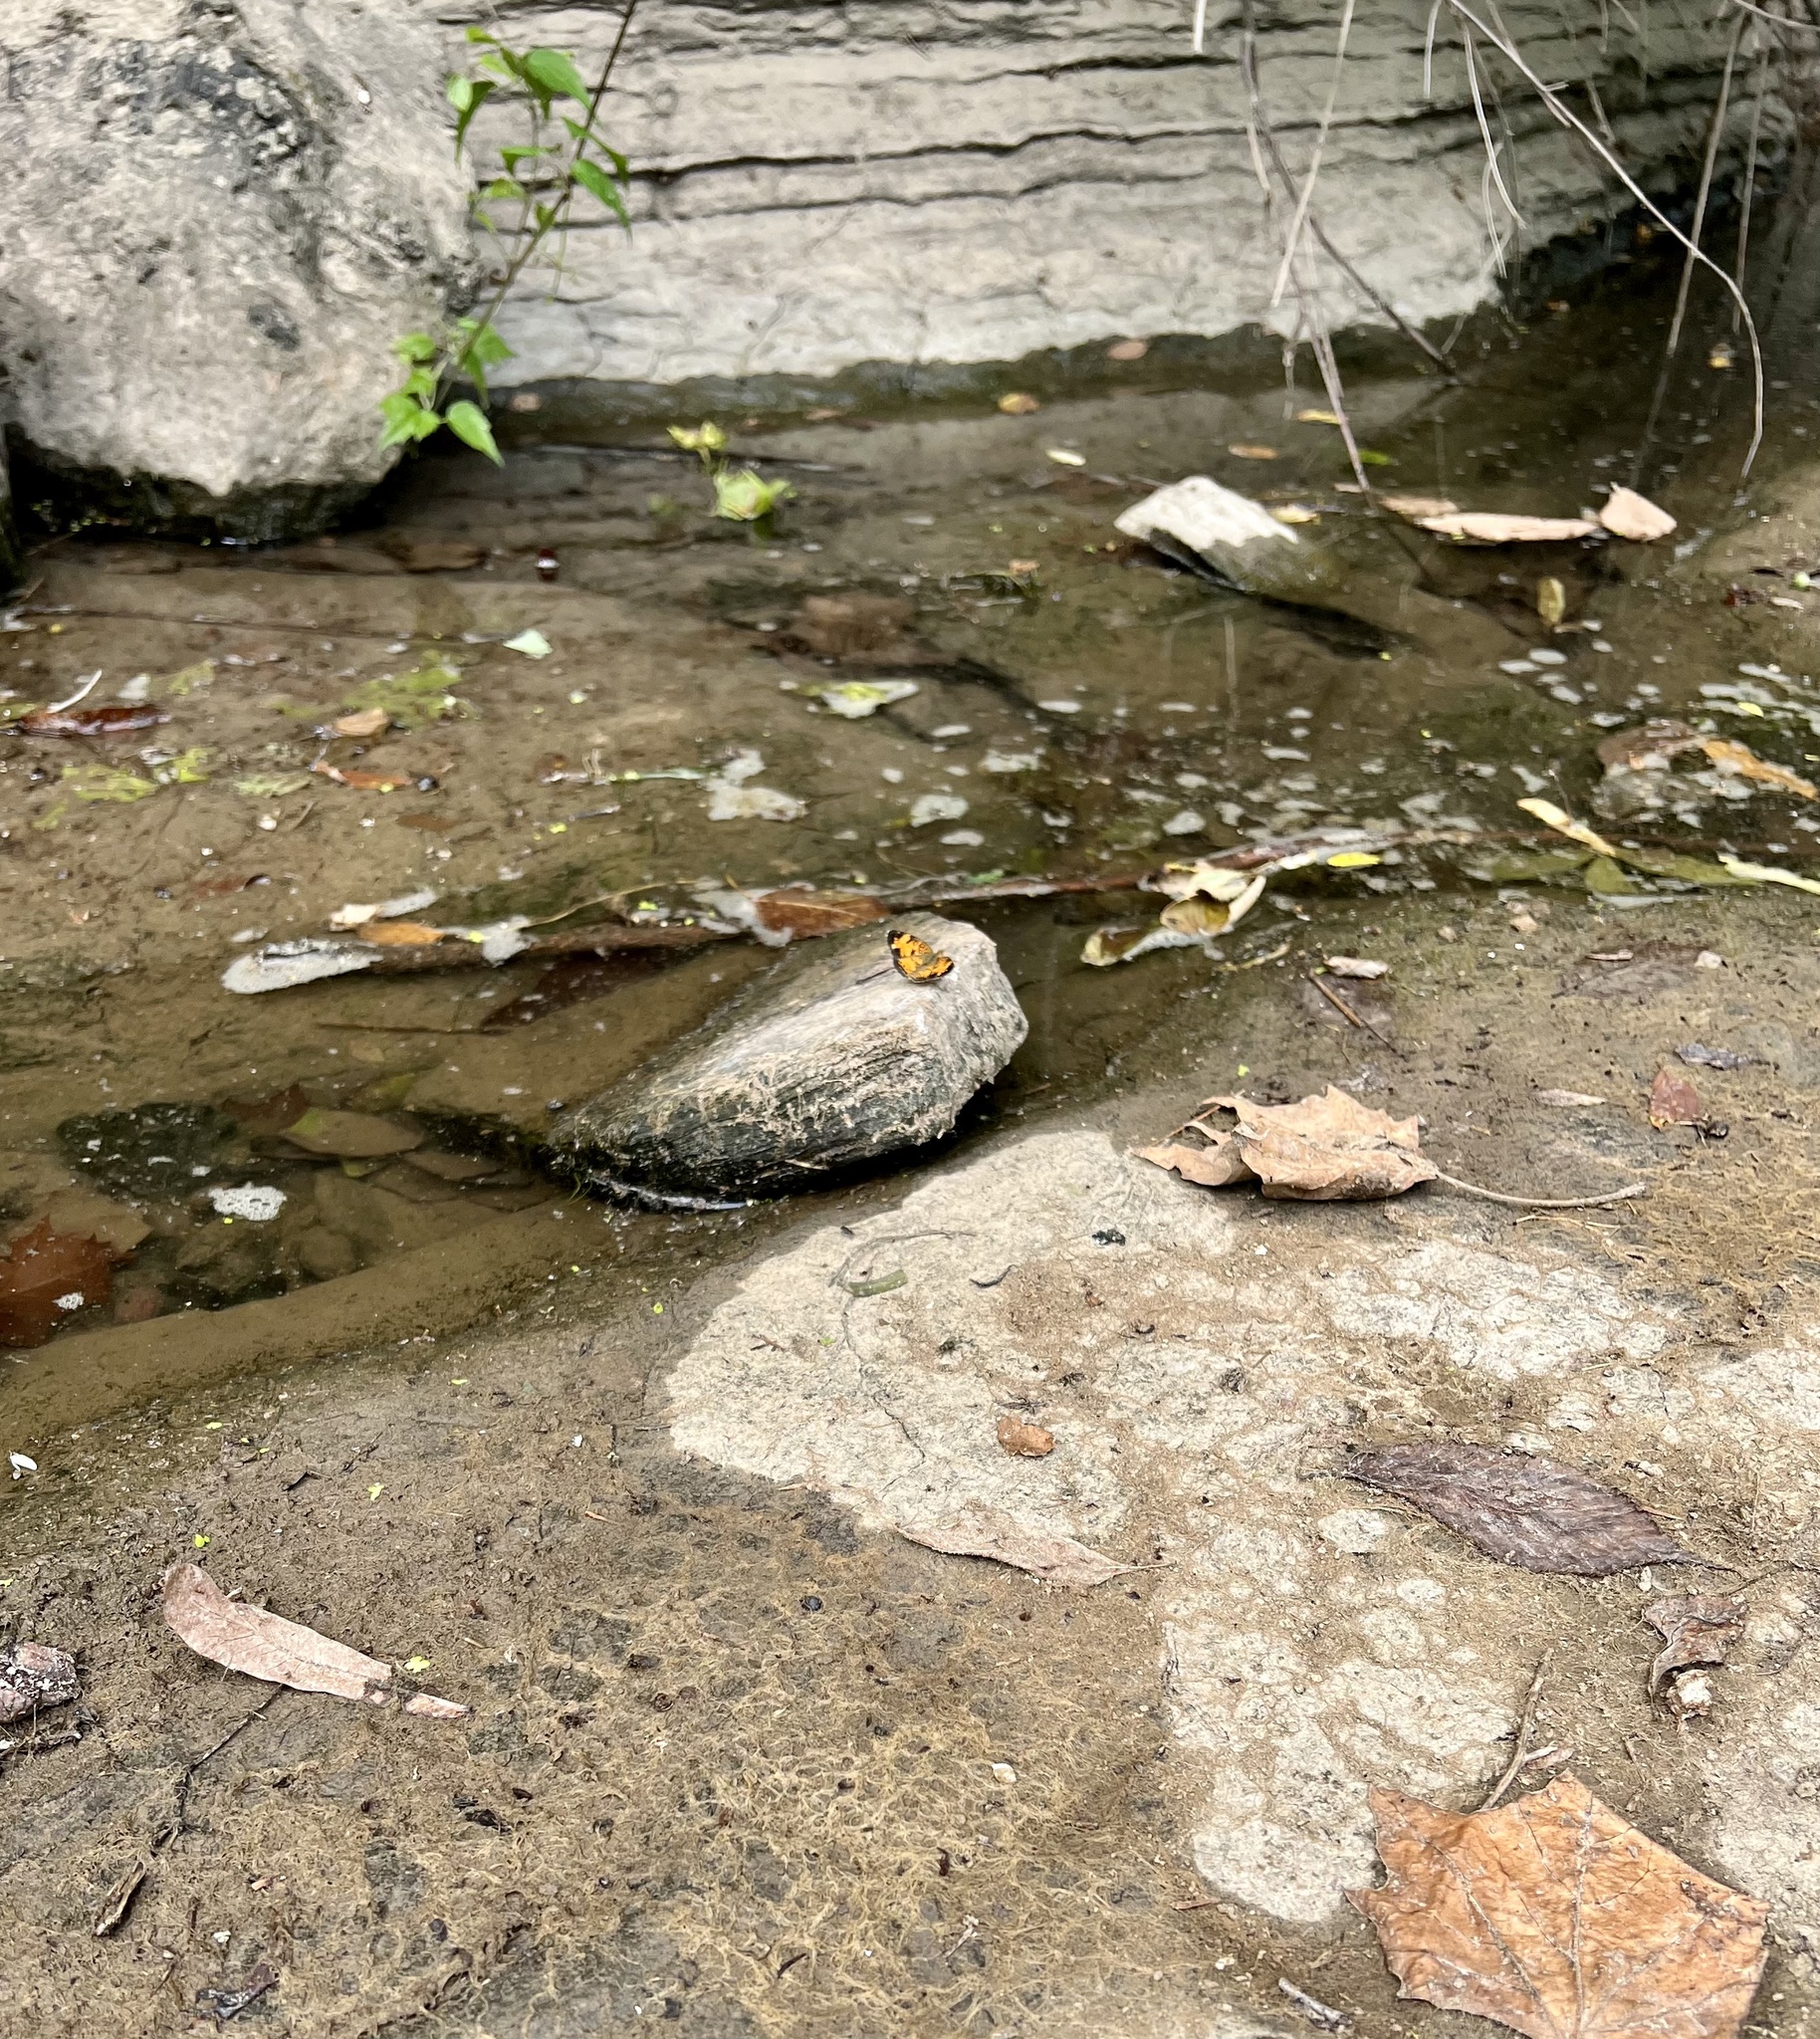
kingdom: Animalia
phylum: Arthropoda
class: Insecta
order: Lepidoptera
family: Nymphalidae
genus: Phyciodes
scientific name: Phyciodes tharos
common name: Pearl crescent
